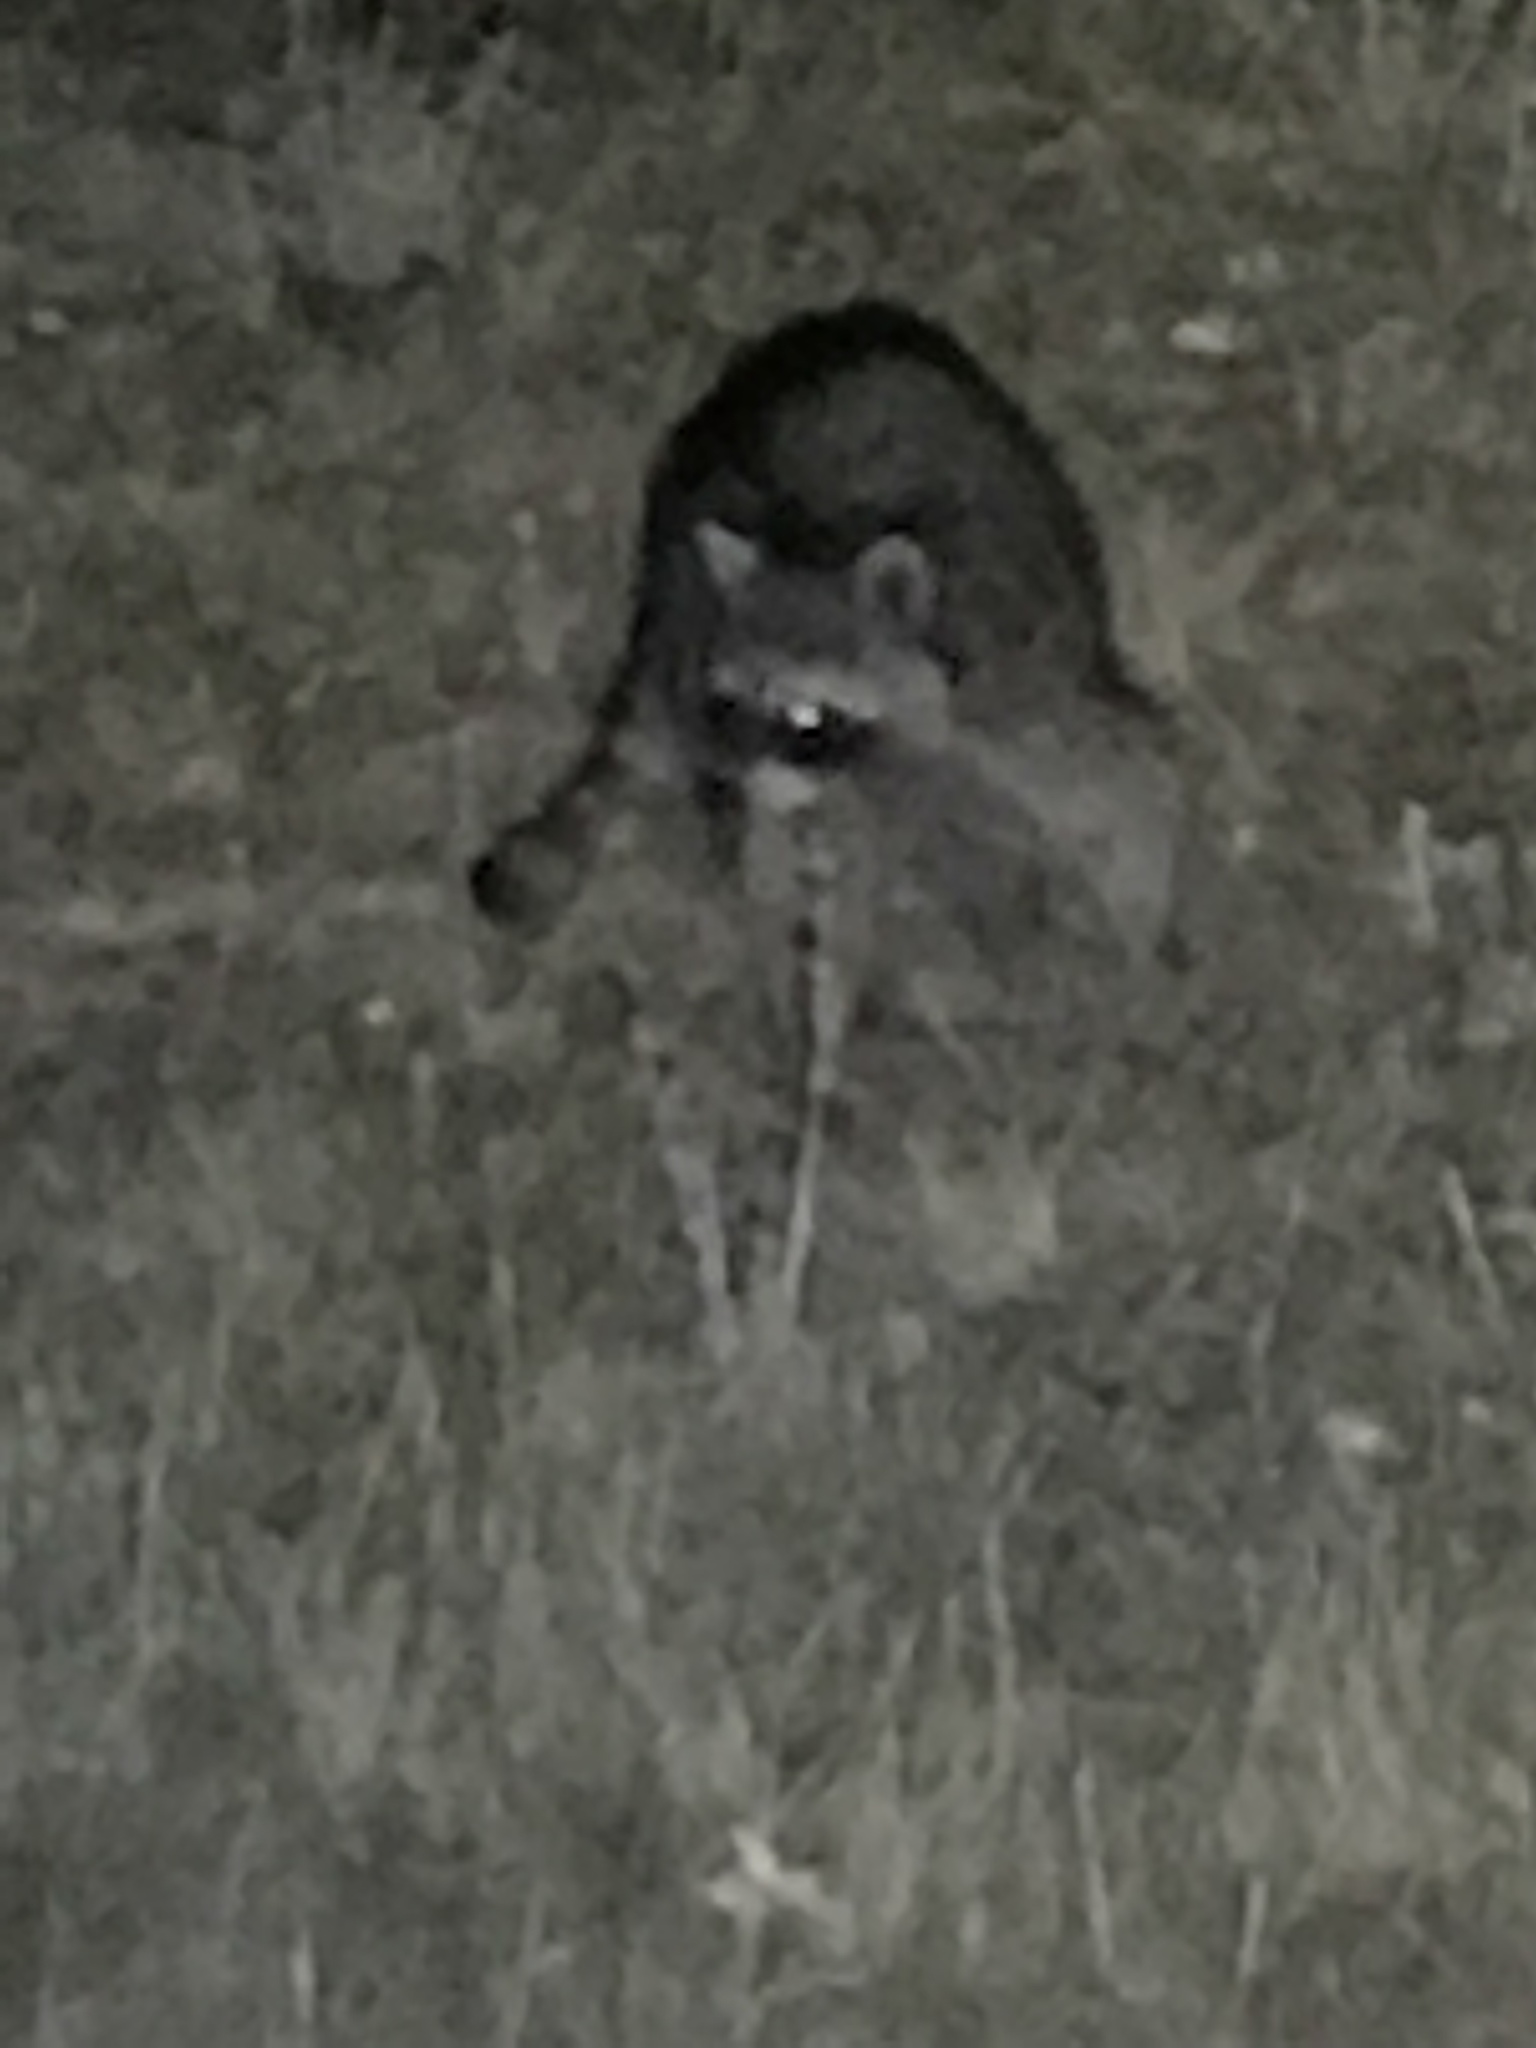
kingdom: Animalia
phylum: Chordata
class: Mammalia
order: Carnivora
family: Procyonidae
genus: Procyon
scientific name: Procyon lotor
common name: Raccoon
